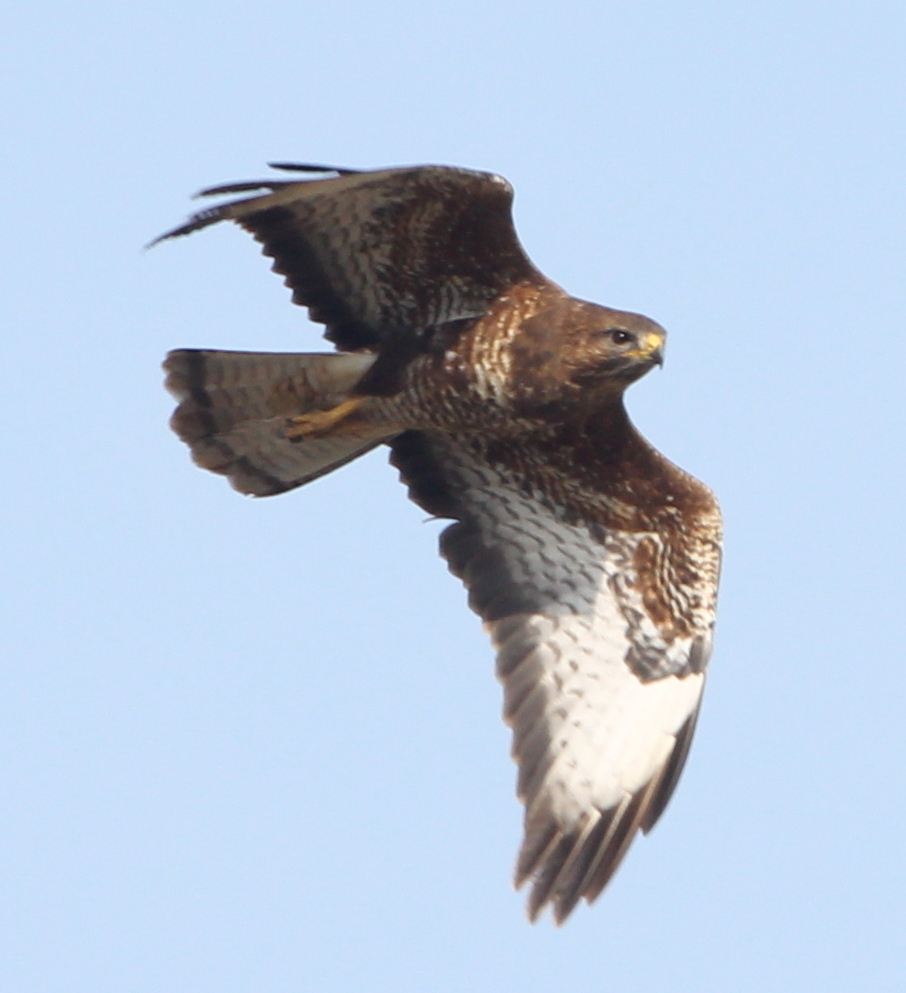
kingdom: Animalia
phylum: Chordata
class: Aves
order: Accipitriformes
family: Accipitridae
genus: Buteo
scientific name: Buteo buteo
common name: Common buzzard
